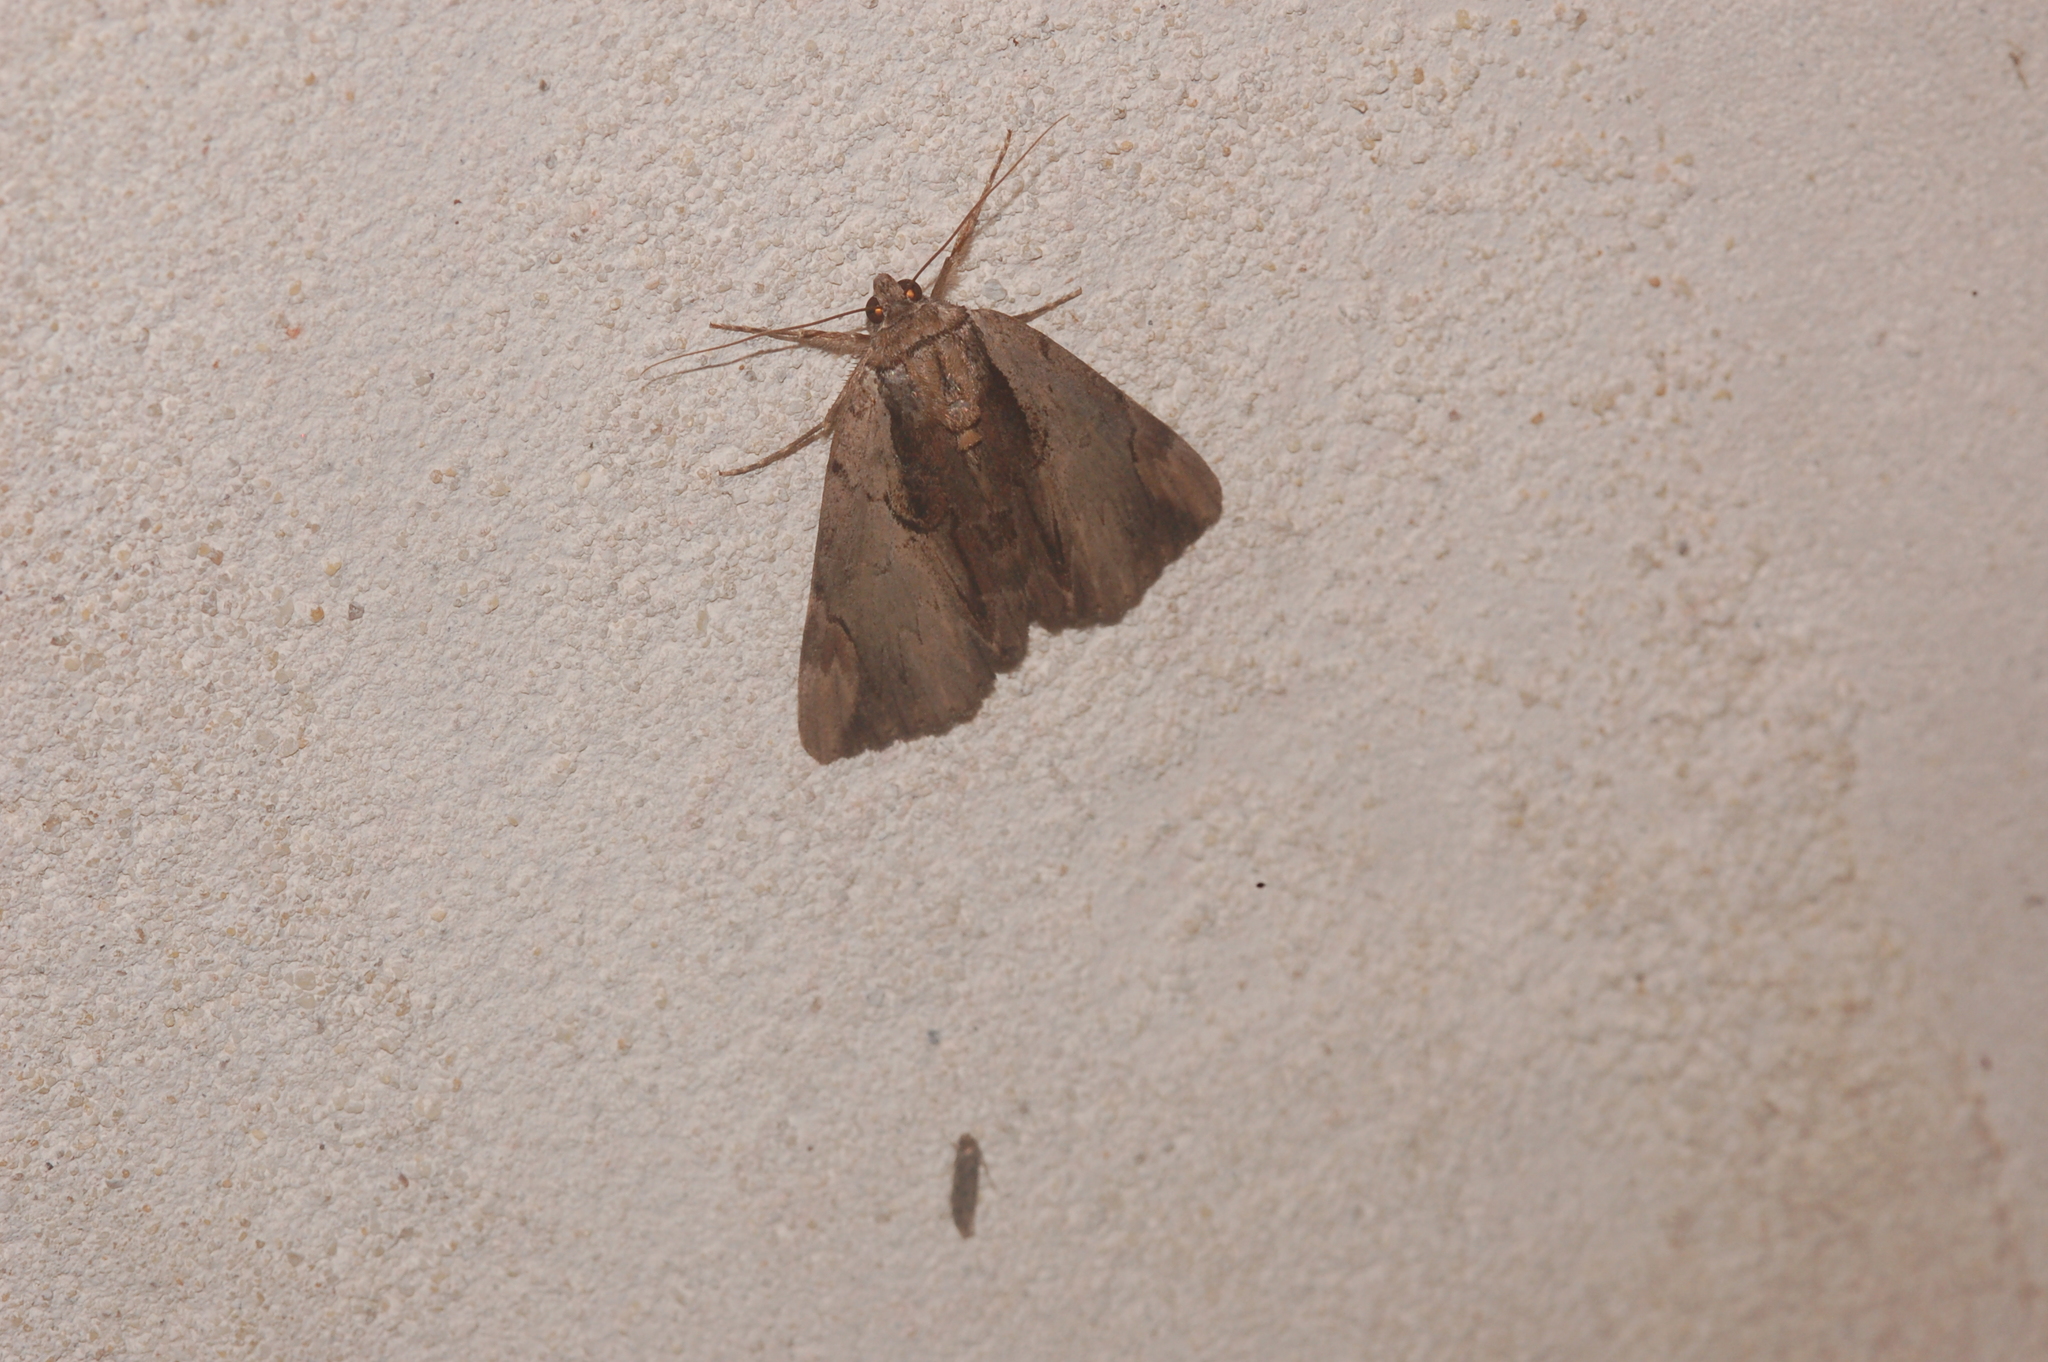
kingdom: Animalia
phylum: Arthropoda
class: Insecta
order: Lepidoptera
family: Erebidae
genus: Catocala
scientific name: Catocala ultronia
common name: Ultronia underwing
